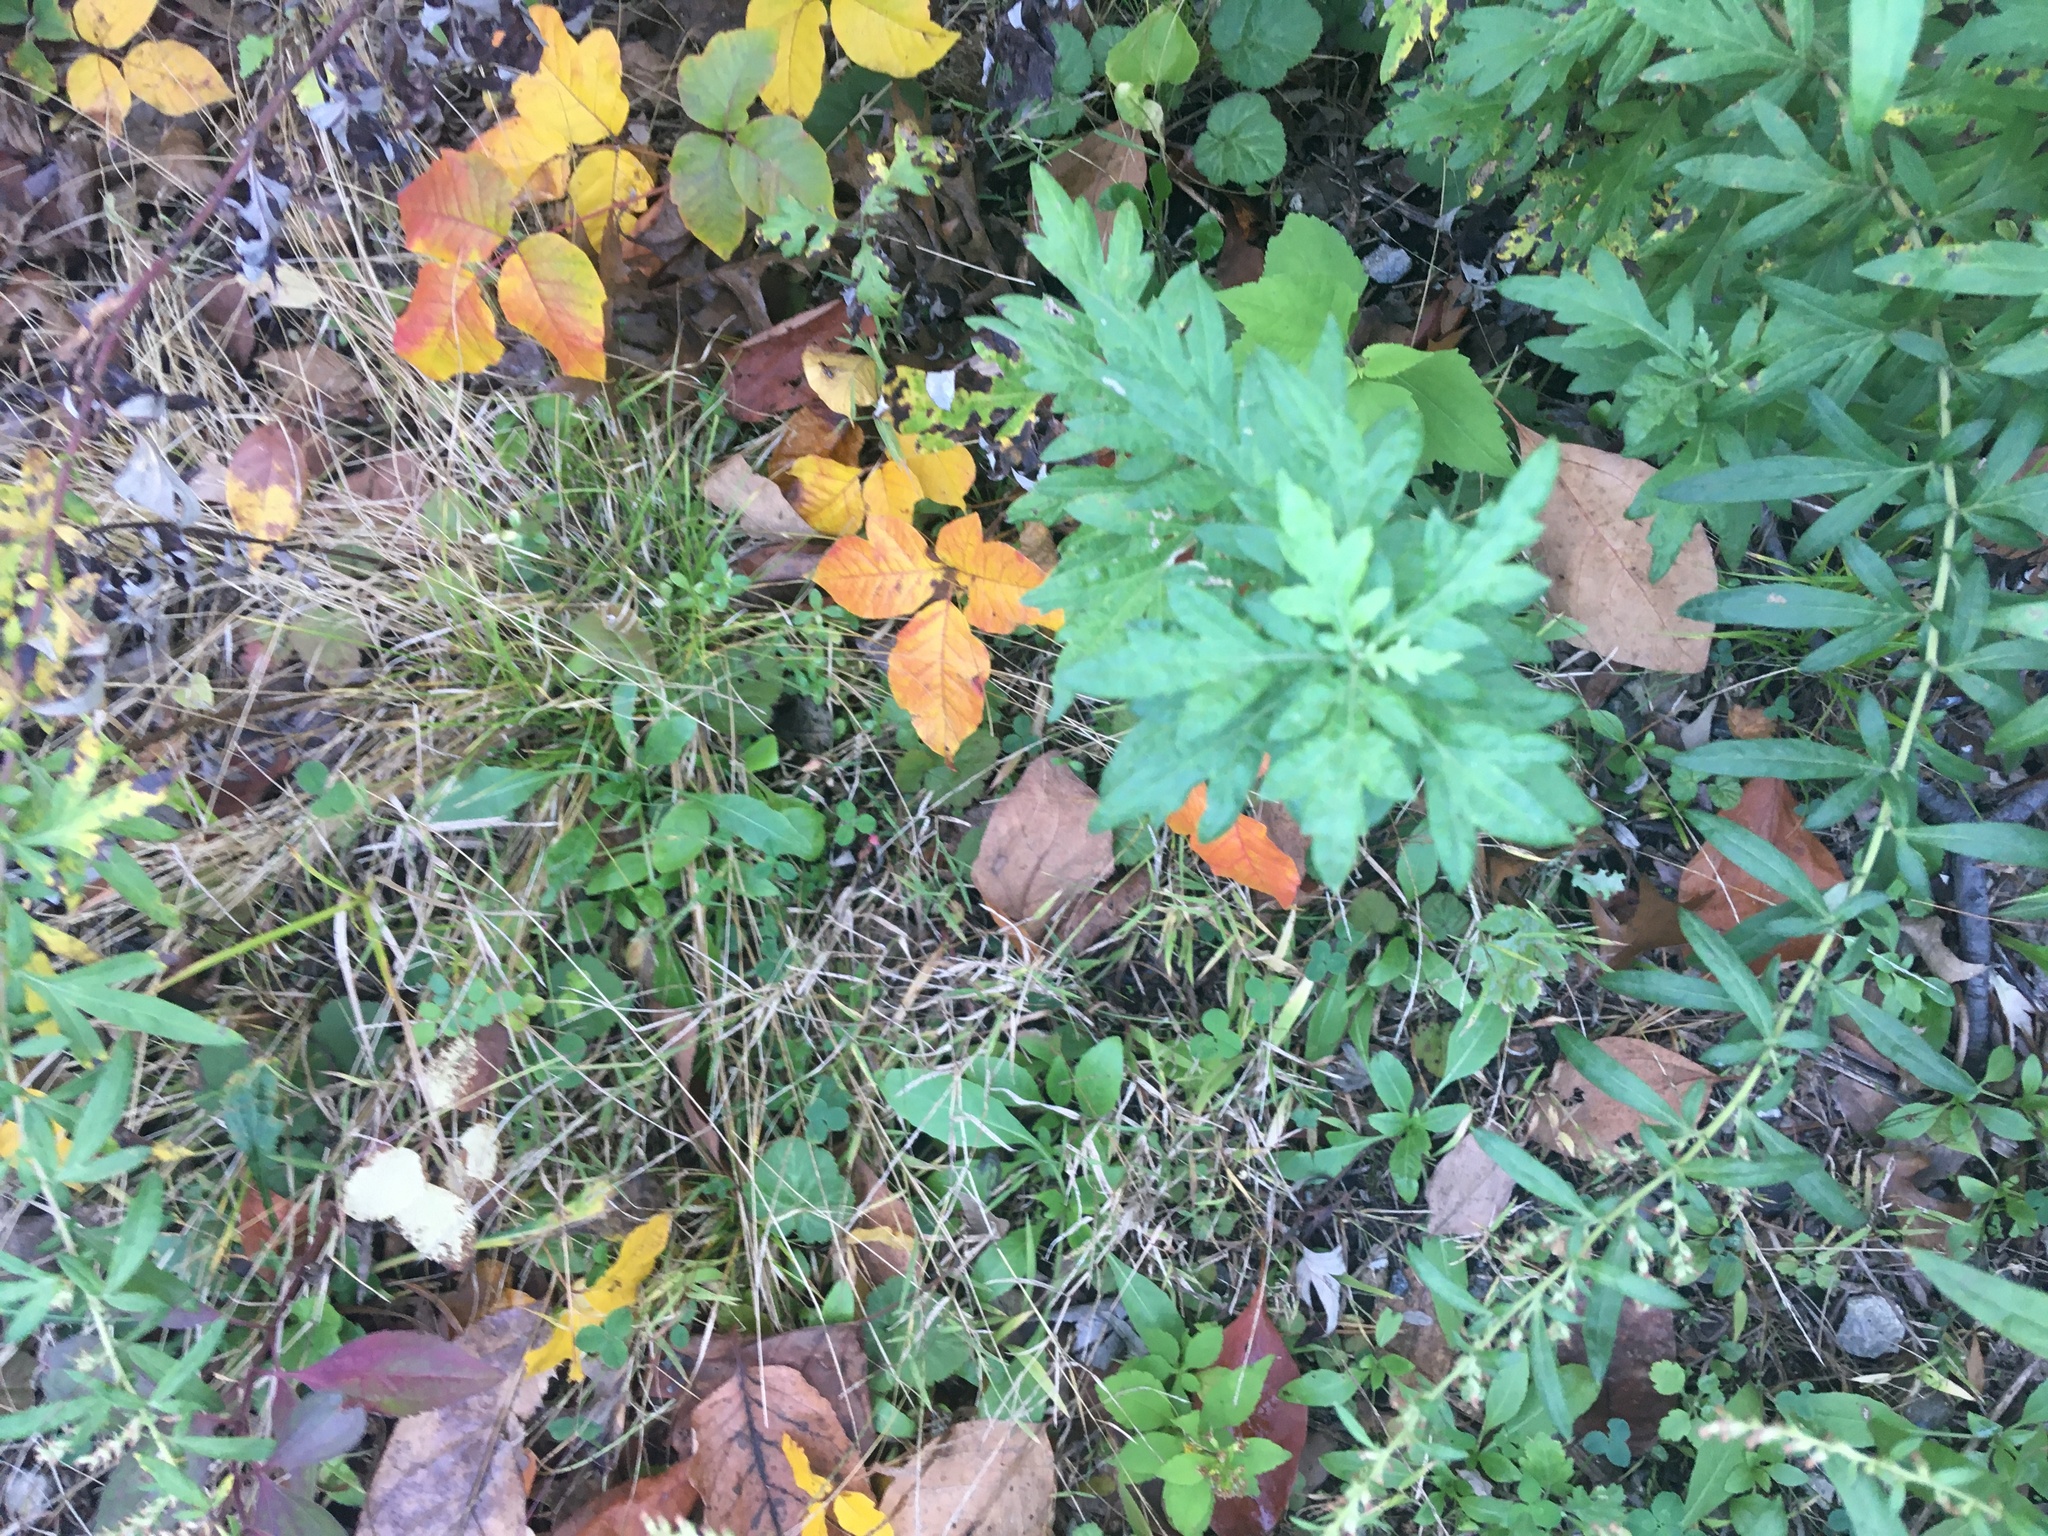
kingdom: Plantae
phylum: Tracheophyta
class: Magnoliopsida
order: Asterales
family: Asteraceae
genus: Artemisia
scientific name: Artemisia vulgaris
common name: Mugwort
